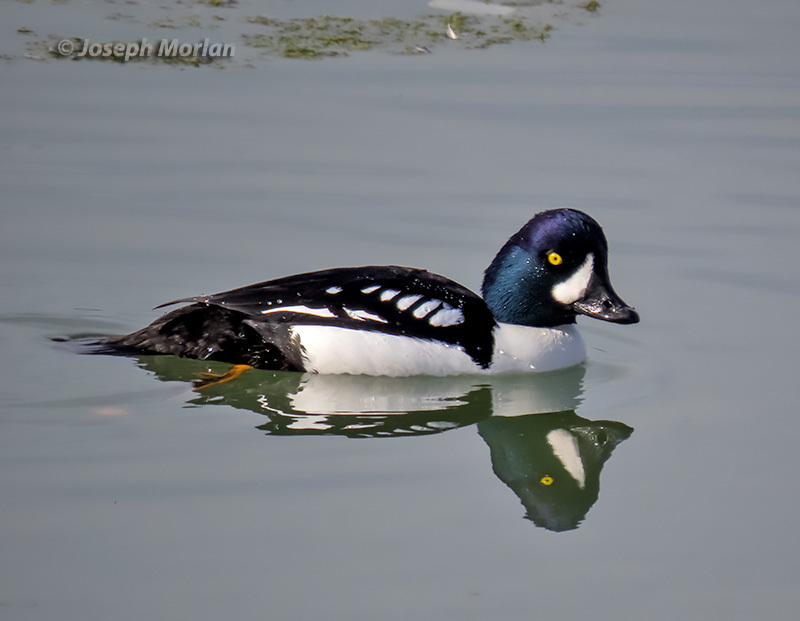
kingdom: Animalia
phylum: Chordata
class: Aves
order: Anseriformes
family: Anatidae
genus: Bucephala
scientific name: Bucephala islandica
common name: Barrow's goldeneye
